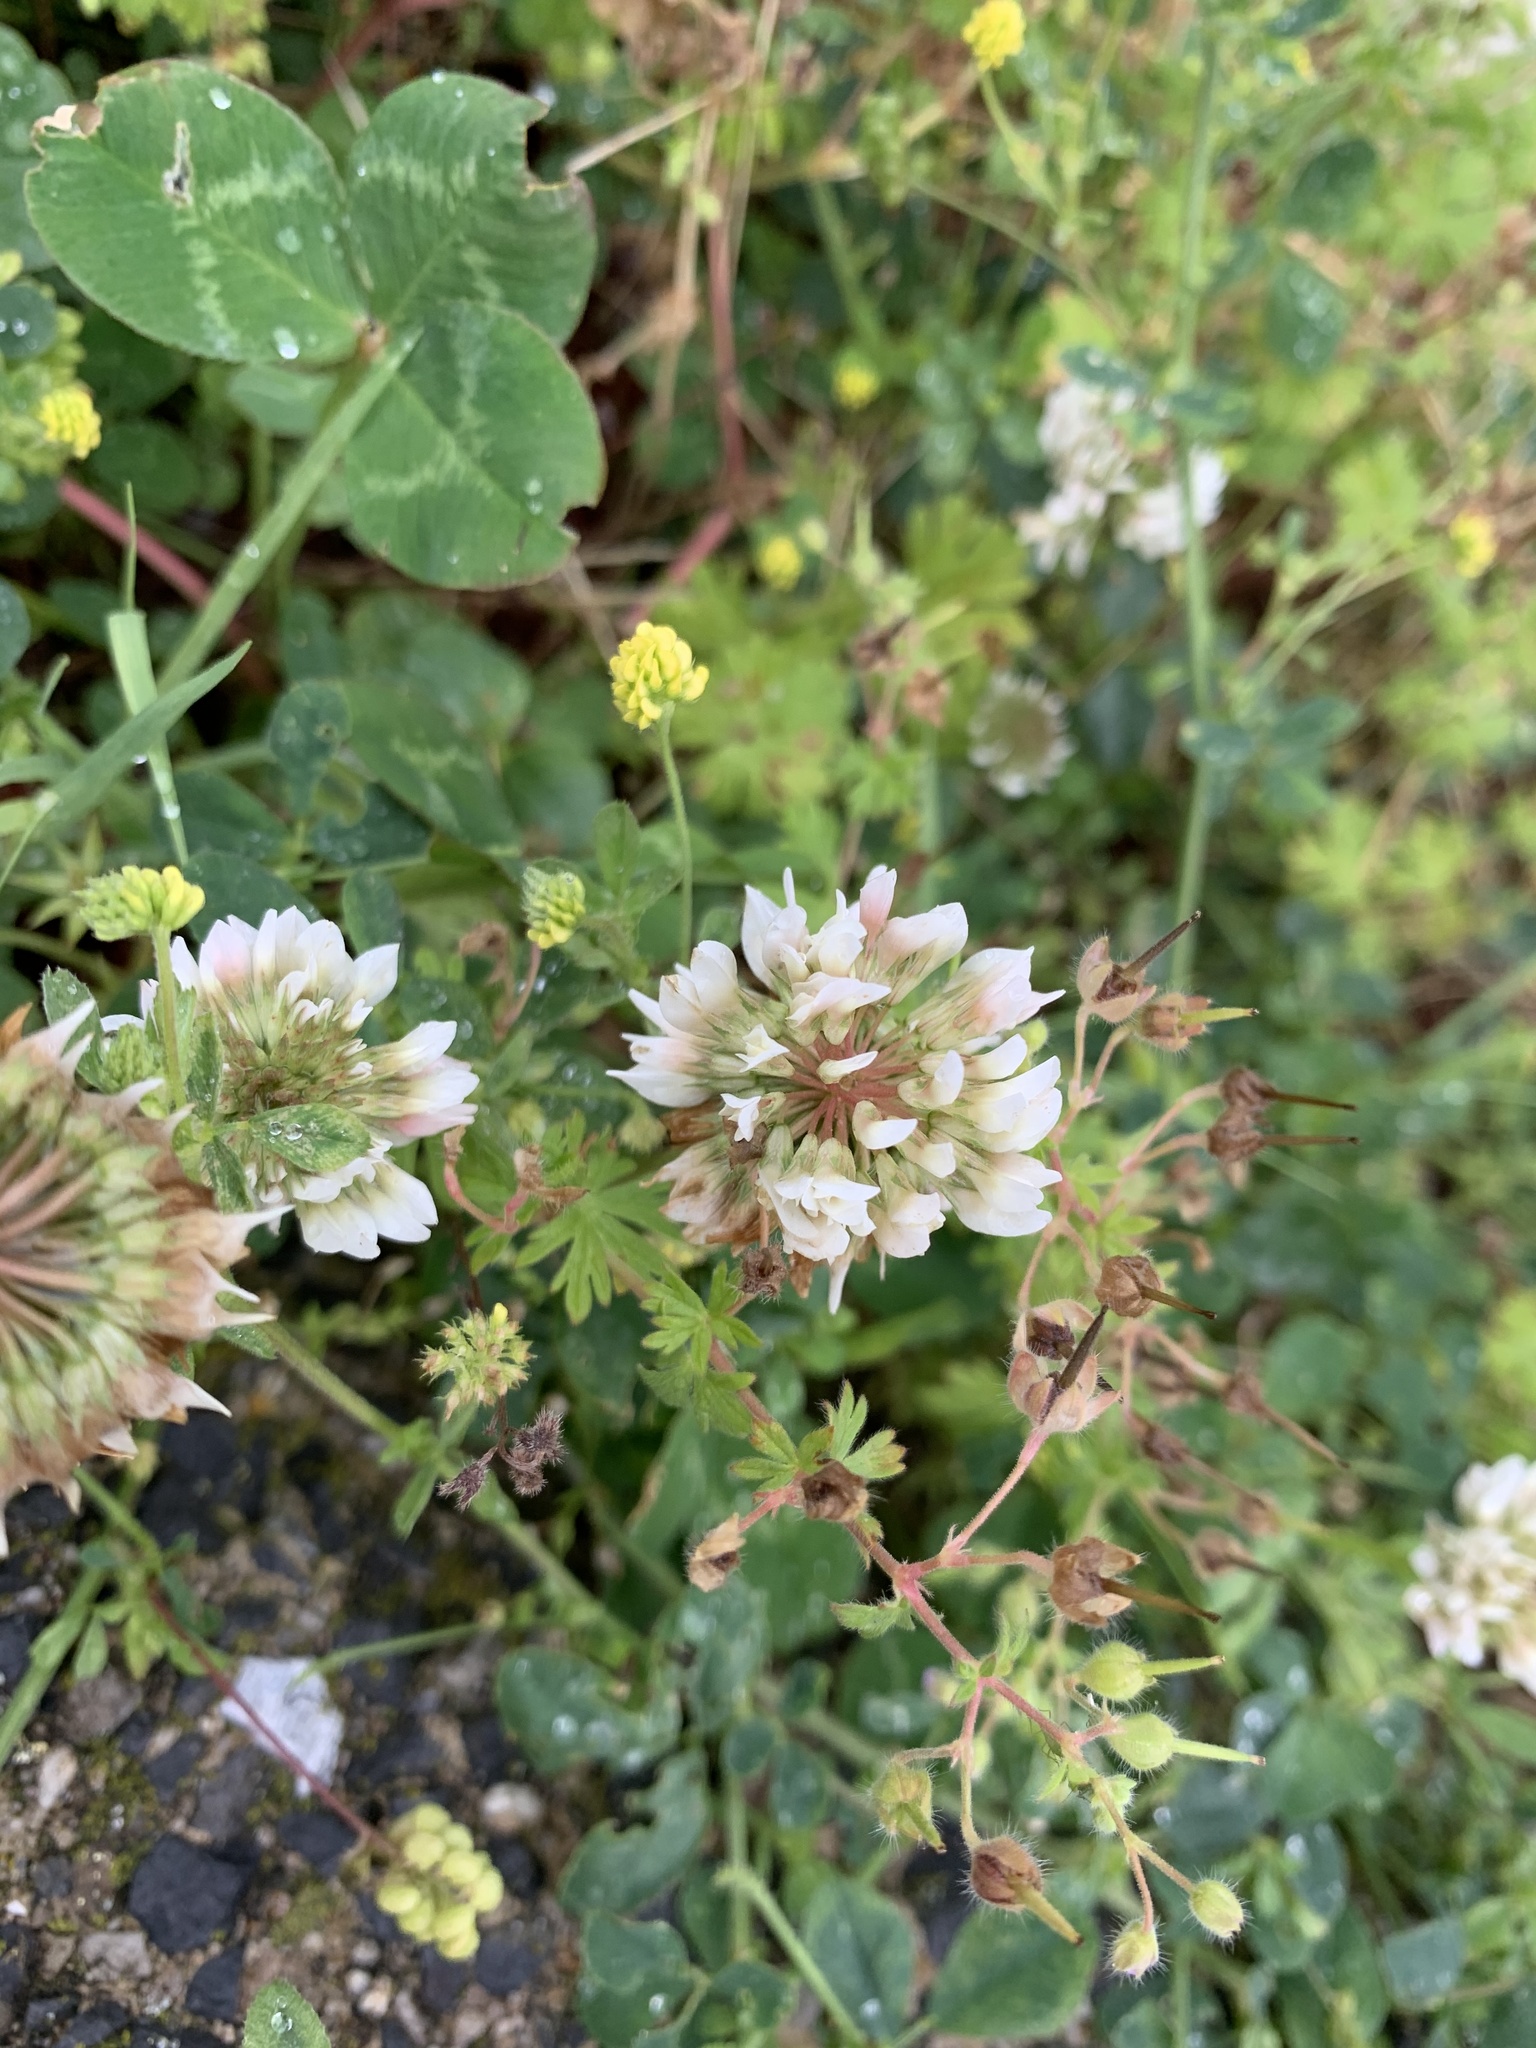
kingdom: Plantae
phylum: Tracheophyta
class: Magnoliopsida
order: Fabales
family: Fabaceae
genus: Trifolium
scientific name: Trifolium repens
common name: White clover
